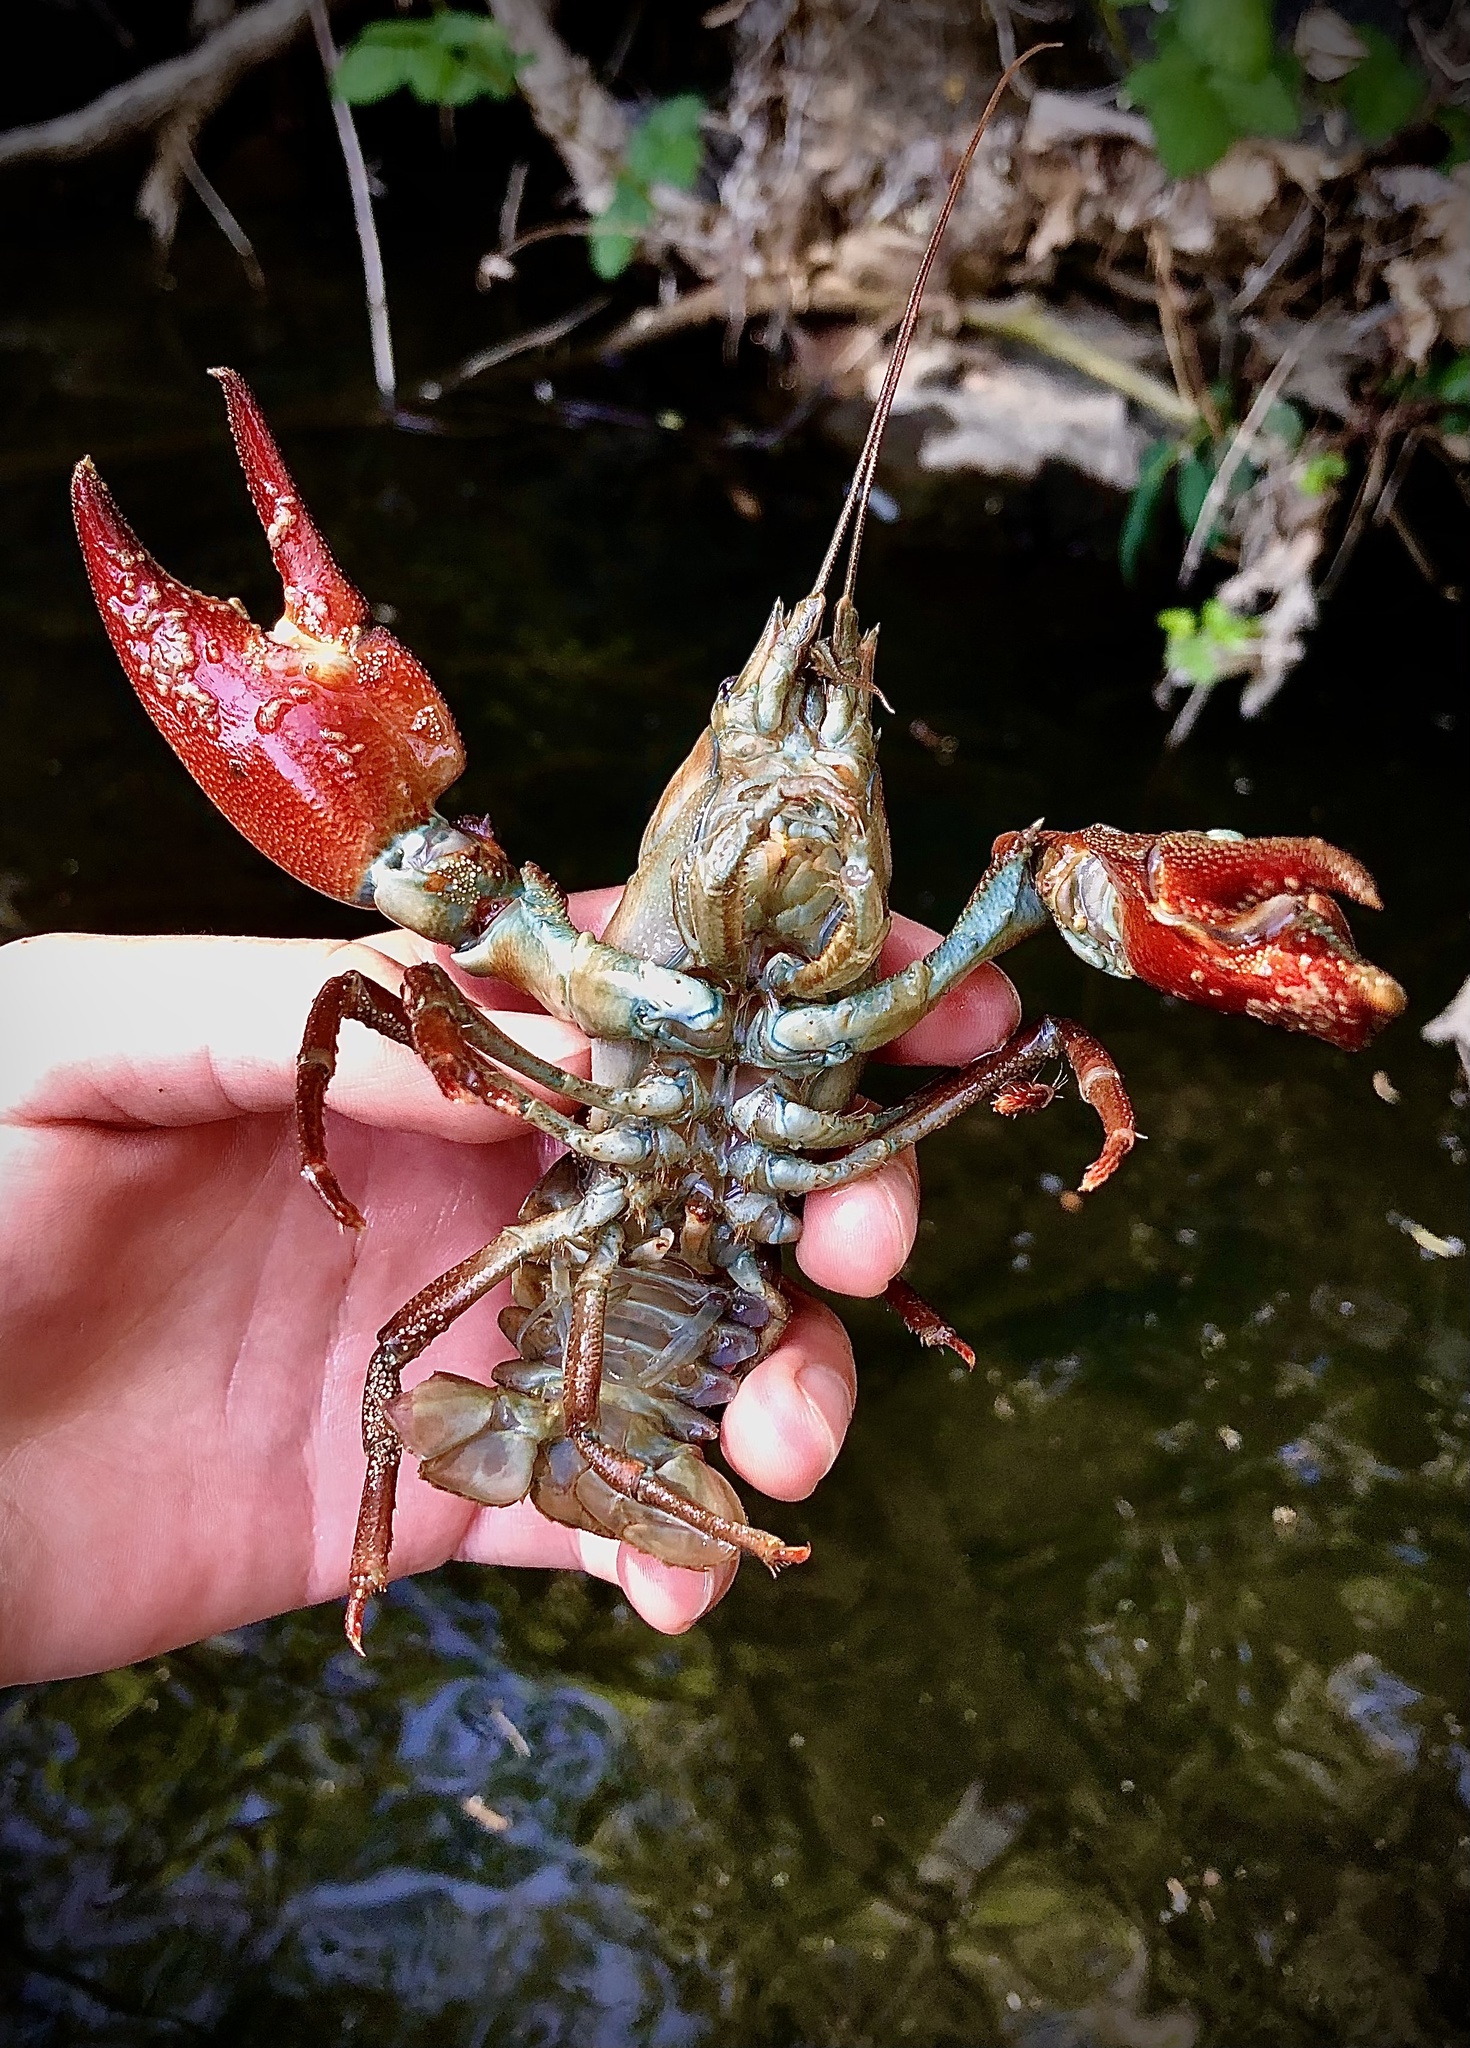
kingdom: Animalia
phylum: Arthropoda
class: Malacostraca
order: Decapoda
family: Astacidae
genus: Pacifastacus
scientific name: Pacifastacus leniusculus
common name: Signal crayfish
